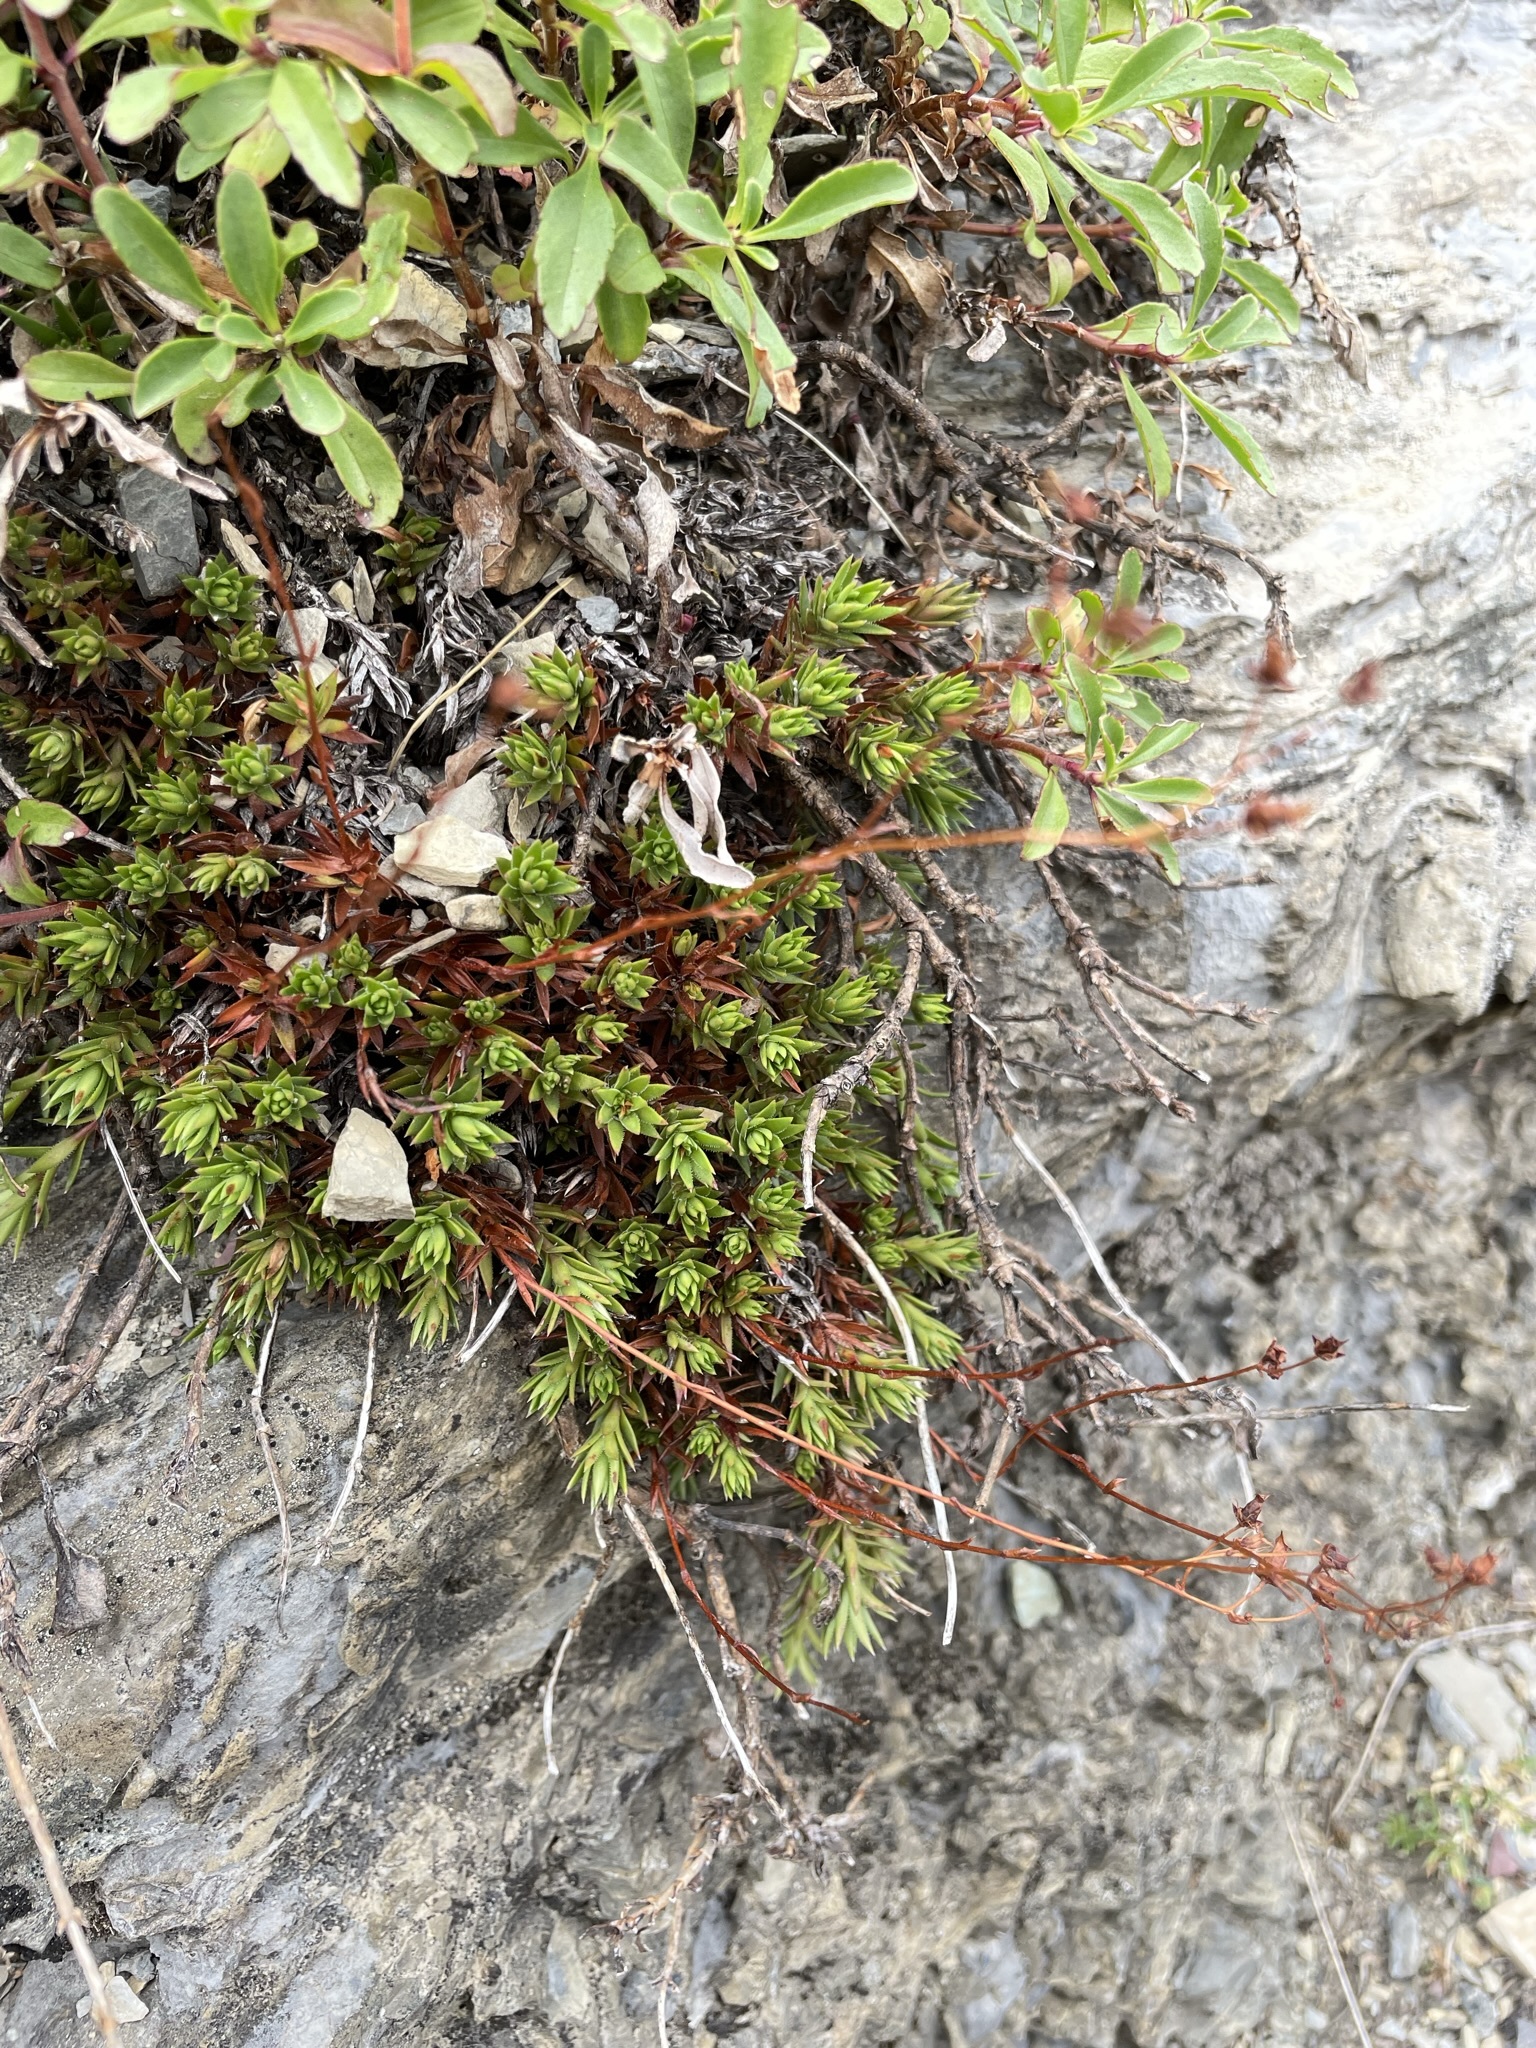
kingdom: Plantae
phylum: Tracheophyta
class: Magnoliopsida
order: Saxifragales
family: Saxifragaceae
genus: Saxifraga
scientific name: Saxifraga bronchialis
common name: Matted saxifrage
